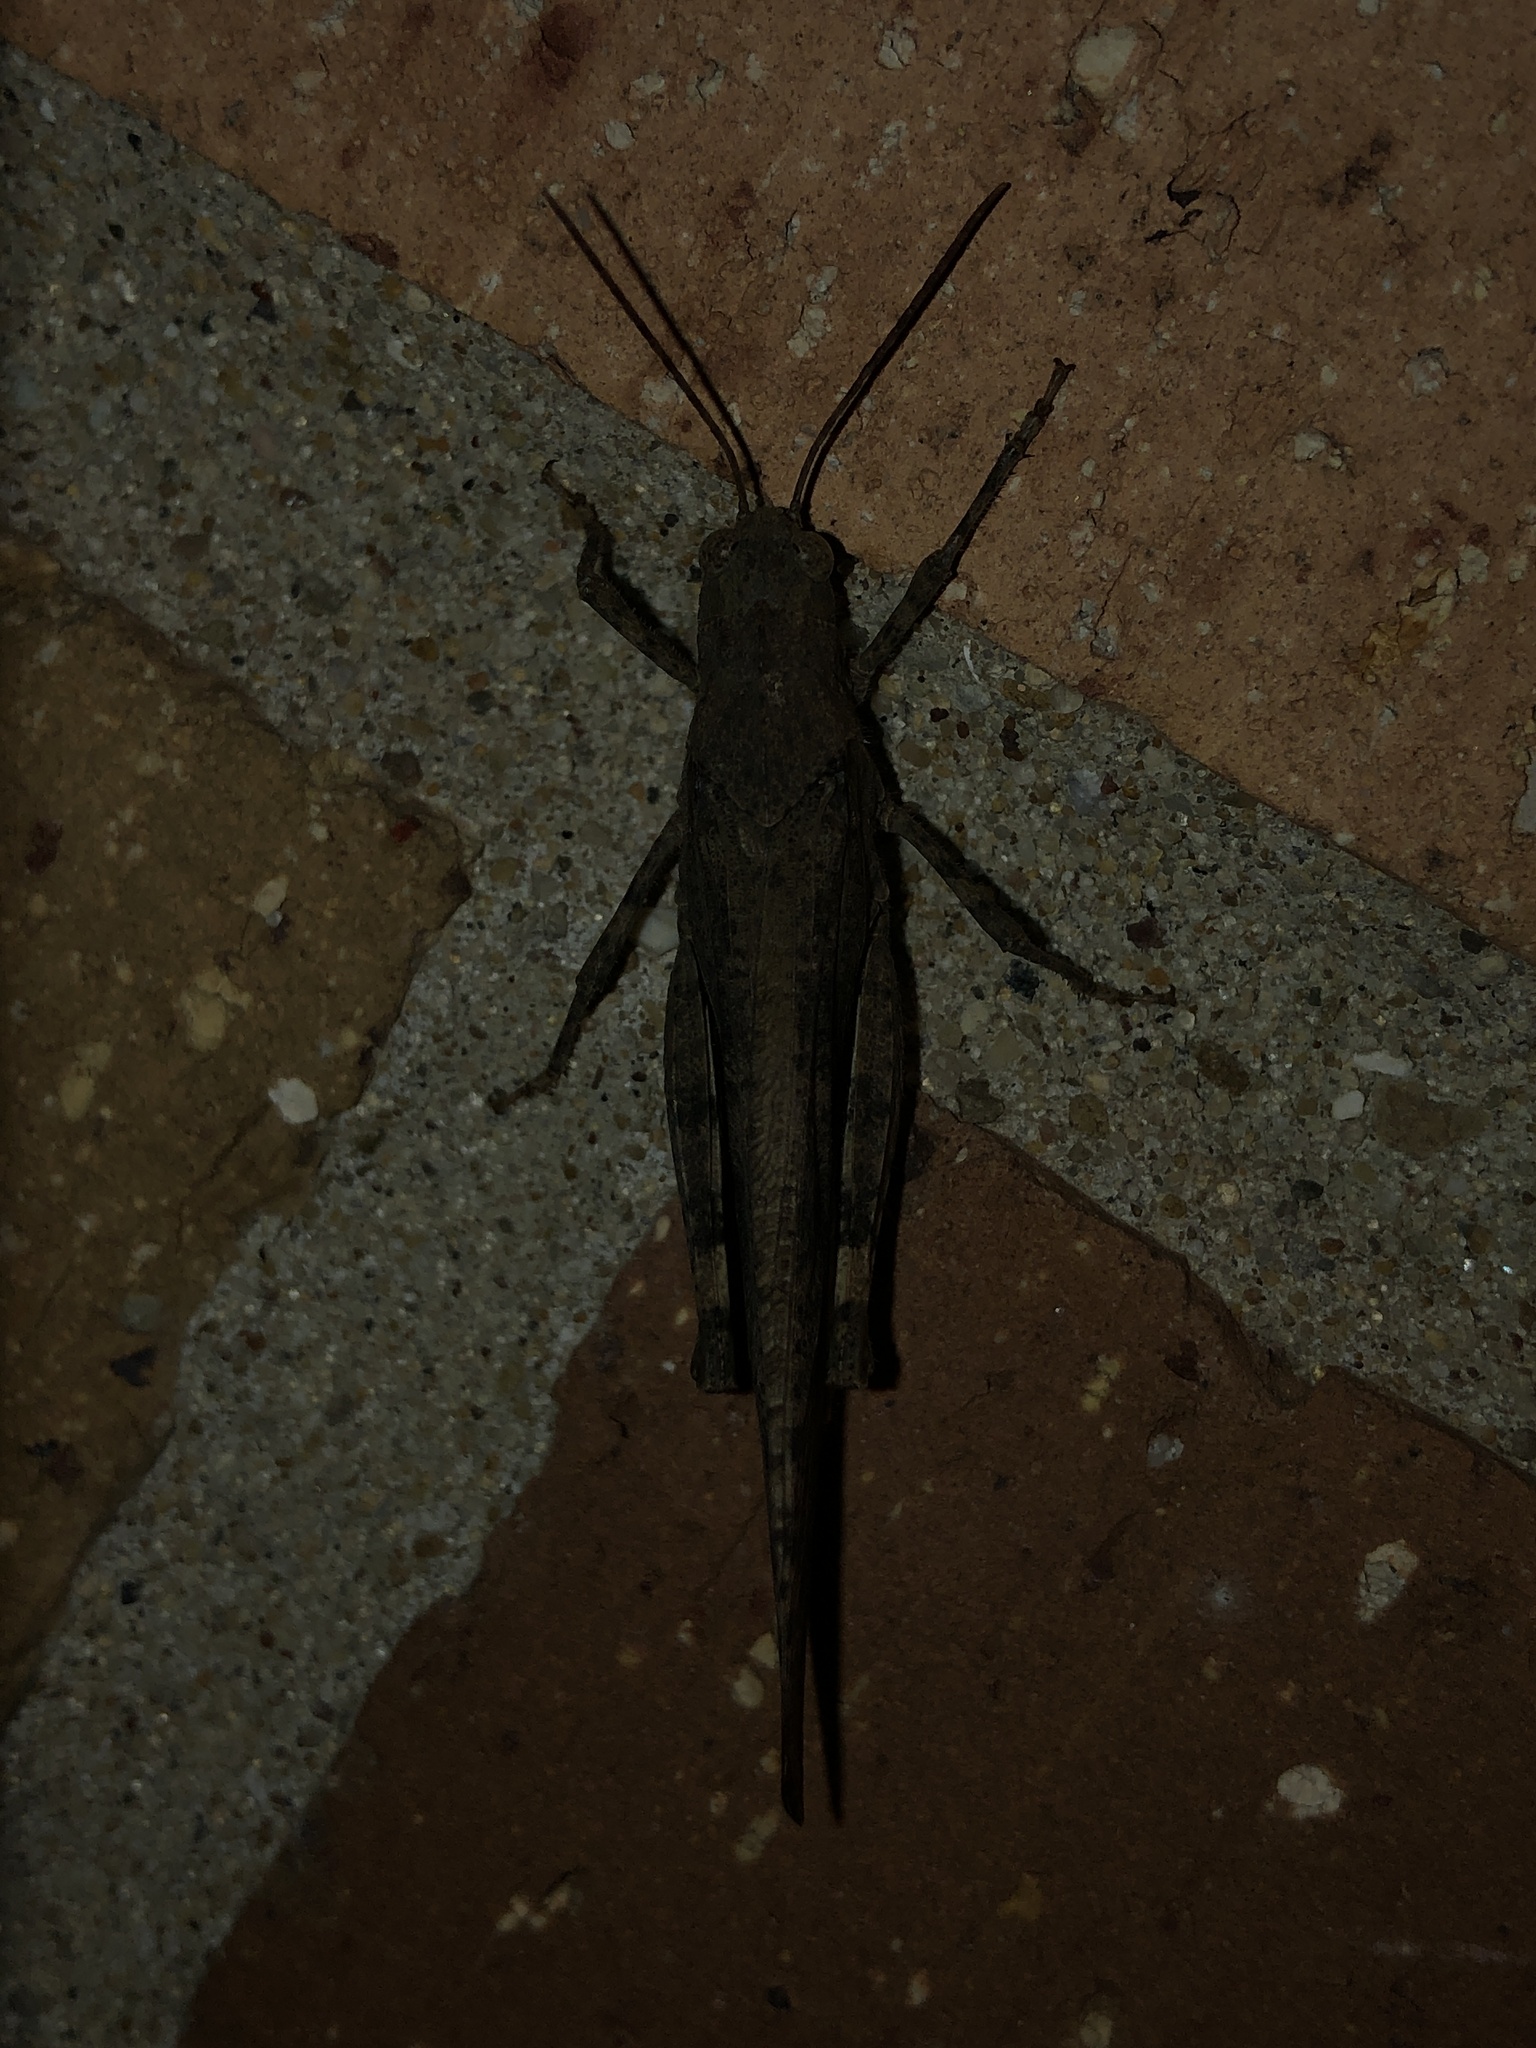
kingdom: Animalia
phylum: Arthropoda
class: Insecta
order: Orthoptera
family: Acrididae
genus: Dissosteira
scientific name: Dissosteira carolina
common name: Carolina grasshopper
